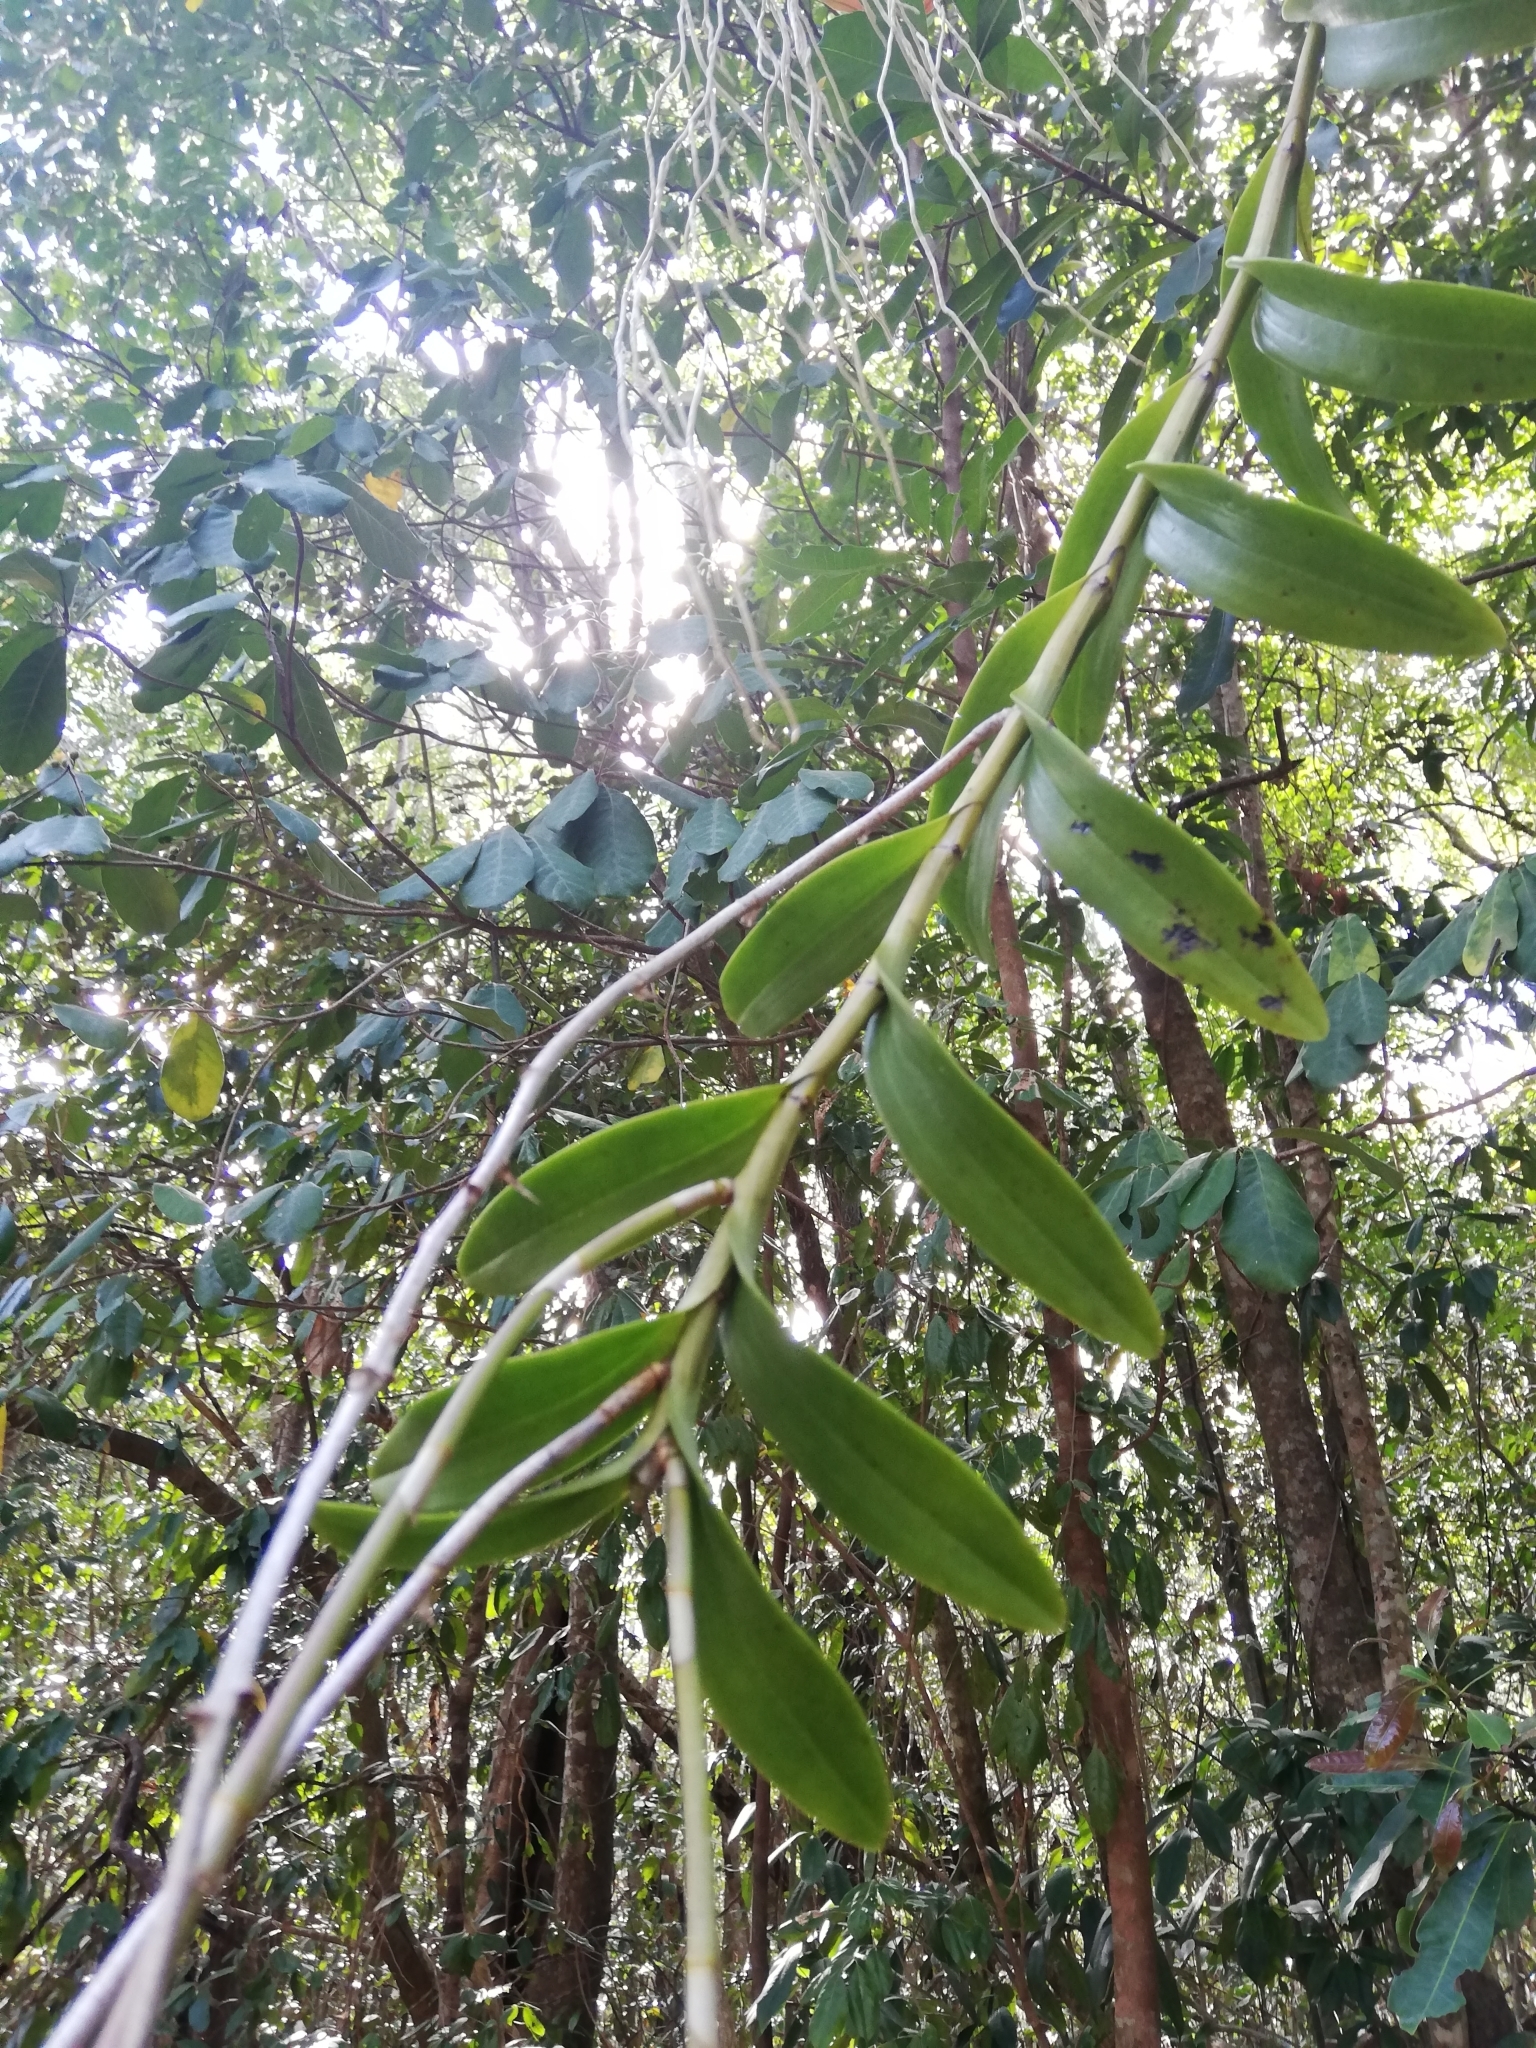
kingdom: Plantae
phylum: Tracheophyta
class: Liliopsida
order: Asparagales
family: Orchidaceae
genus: Dendrobium
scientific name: Dendrobium discolor
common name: Golden antler orchid
